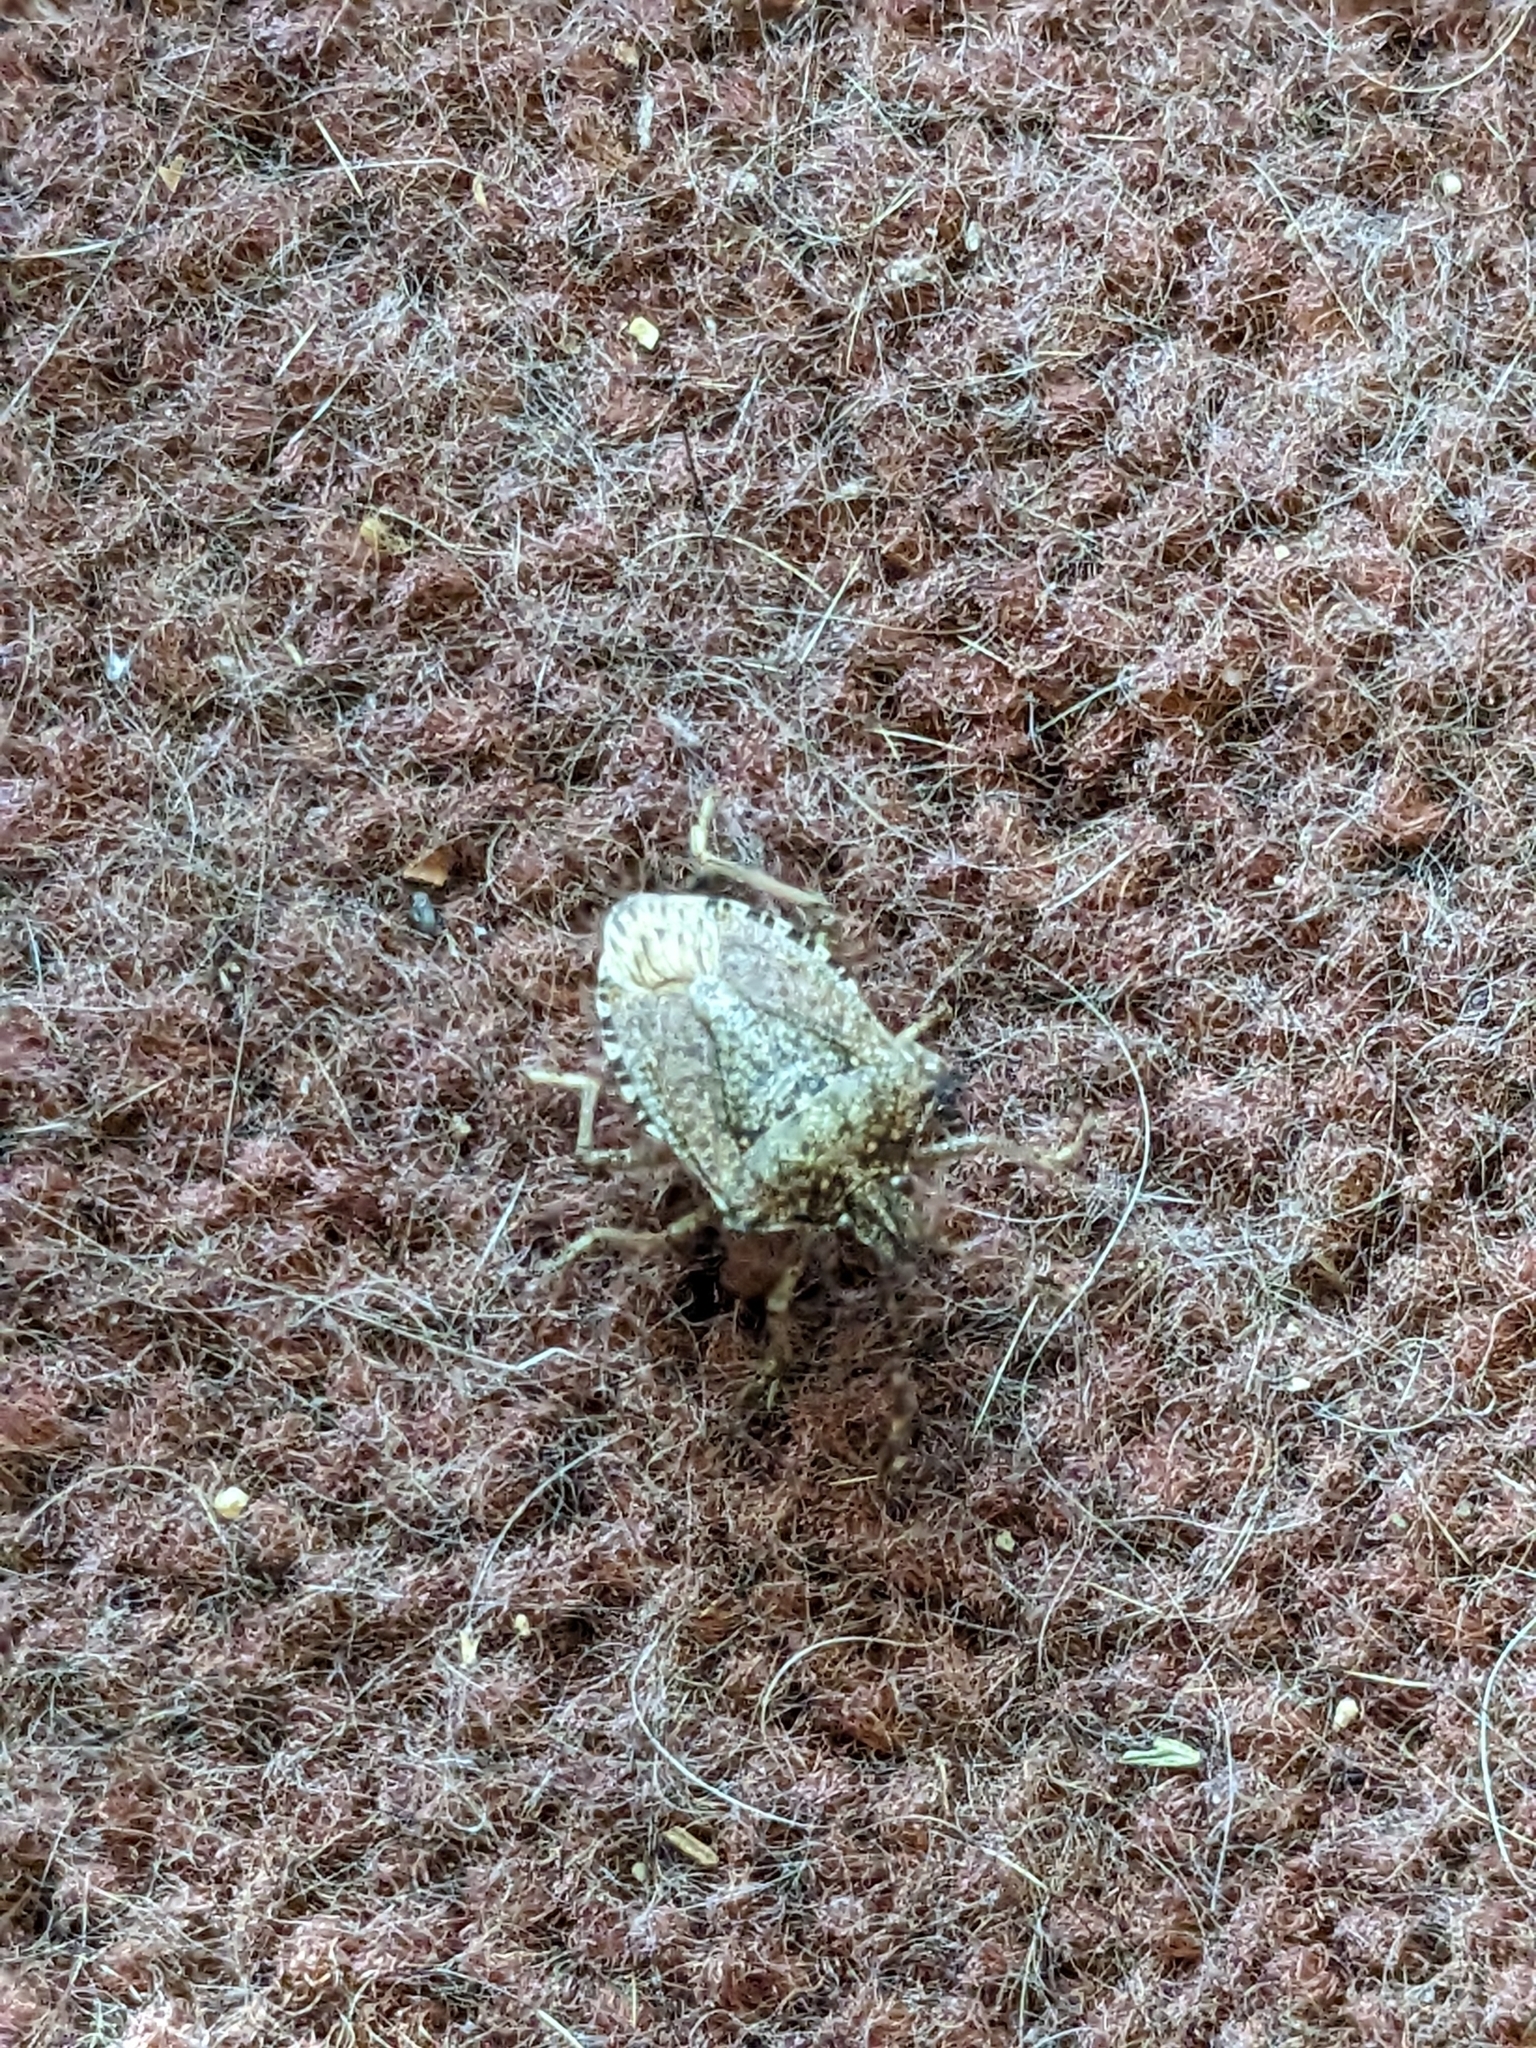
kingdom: Animalia
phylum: Arthropoda
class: Insecta
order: Hemiptera
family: Pentatomidae
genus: Halyomorpha
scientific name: Halyomorpha halys
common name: Brown marmorated stink bug
